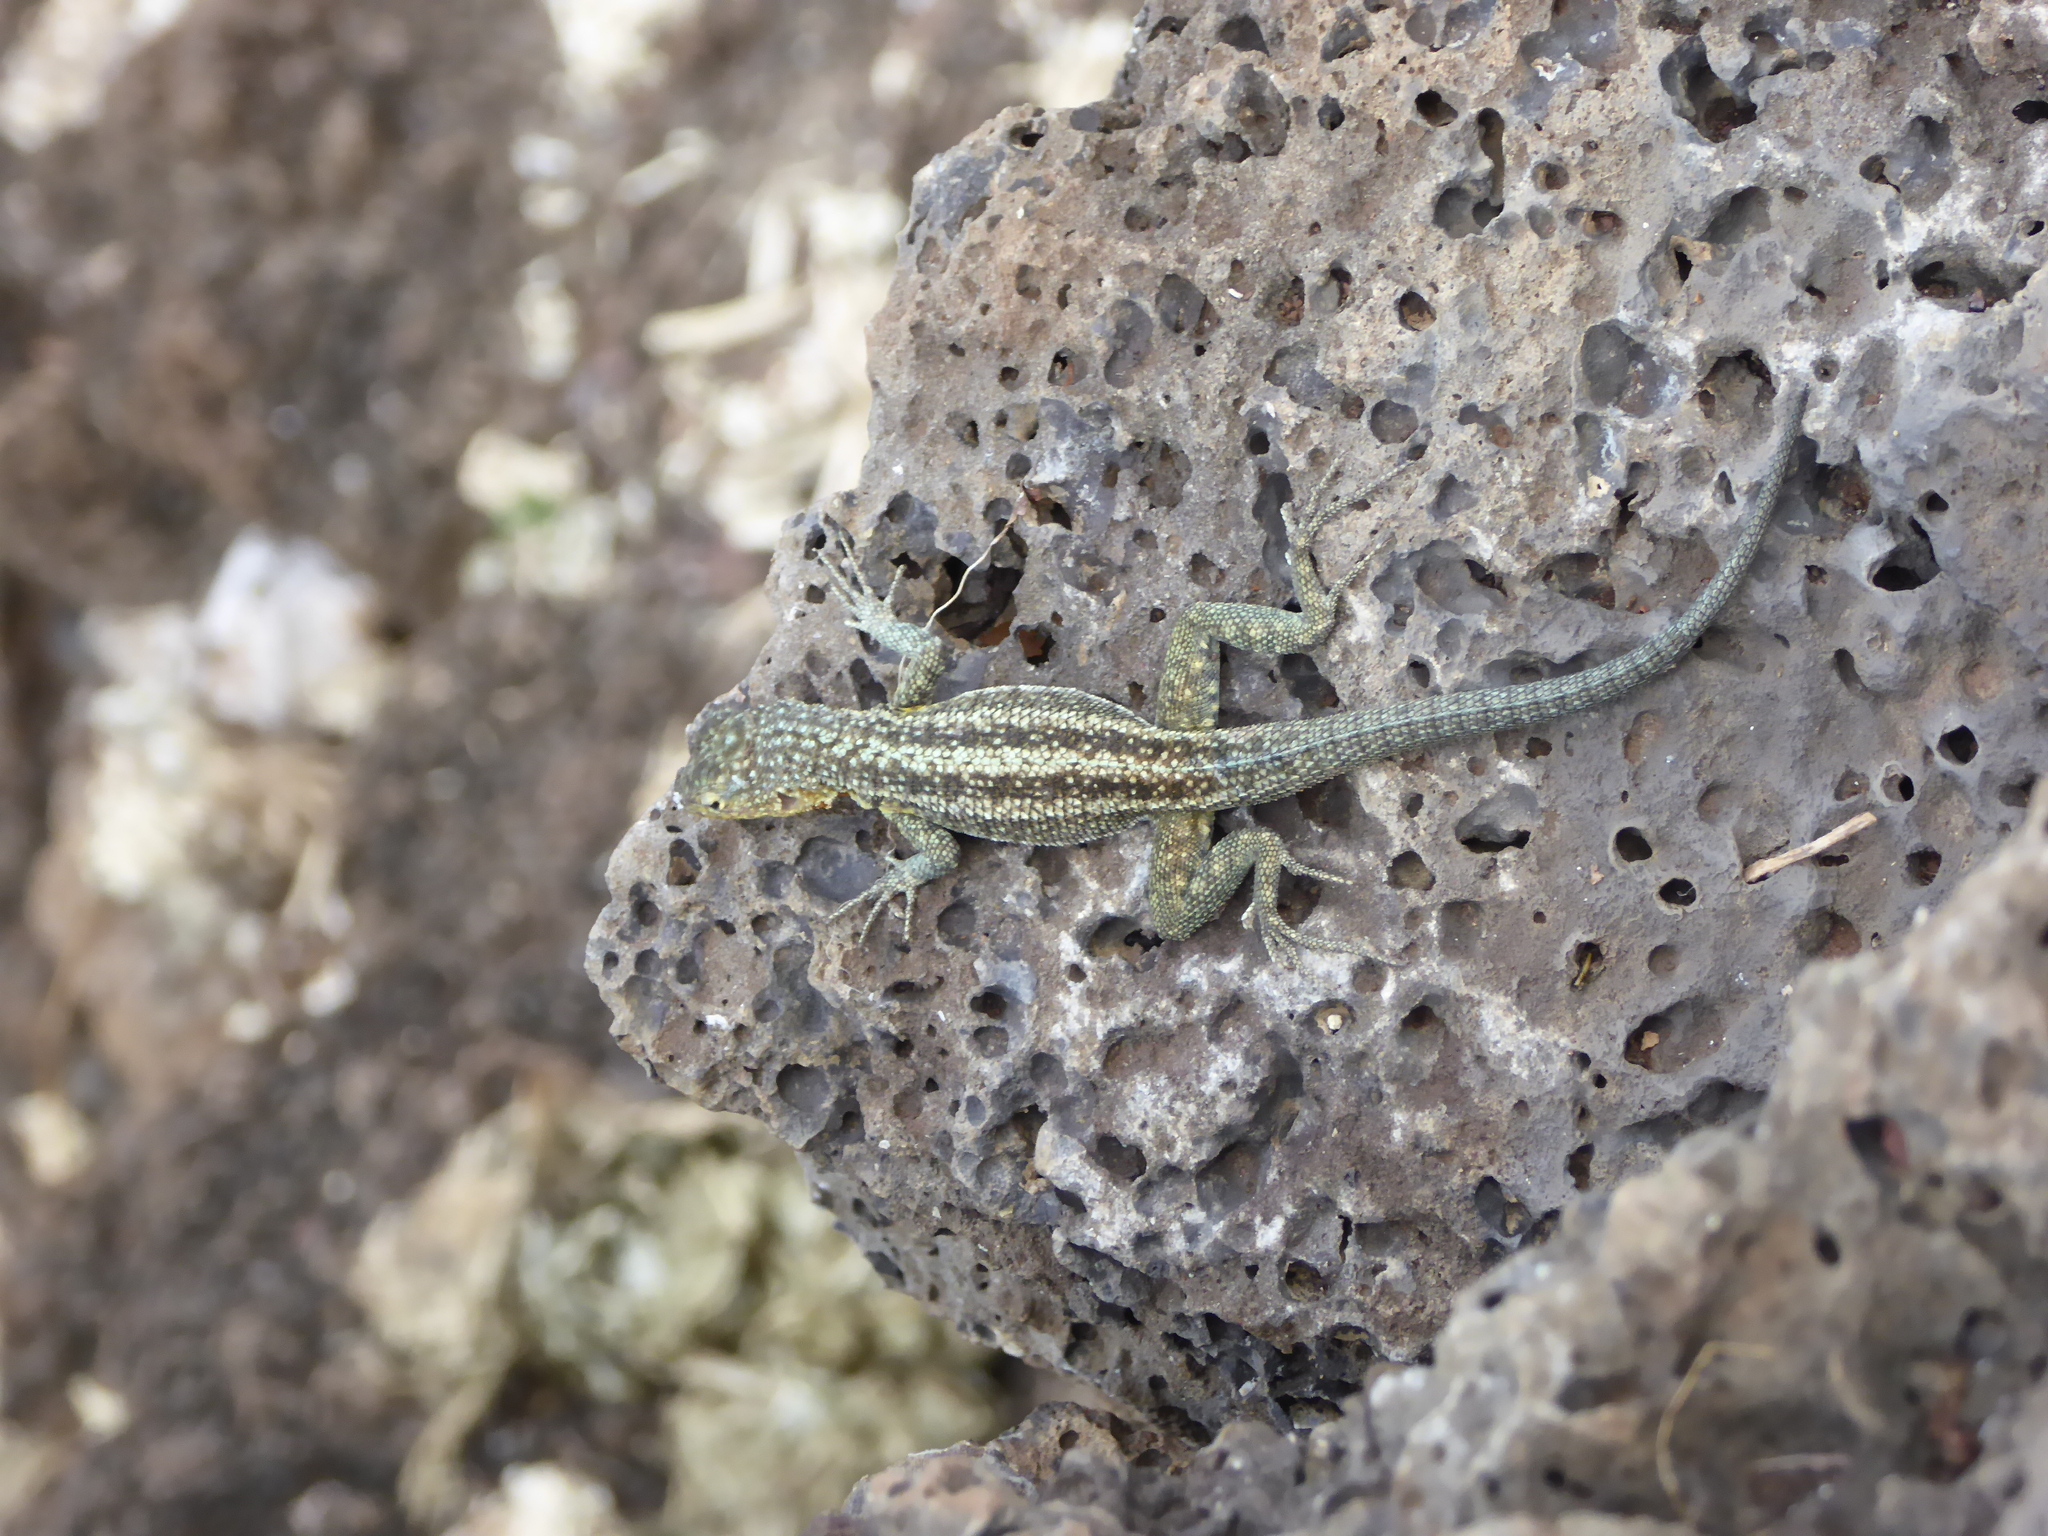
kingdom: Animalia
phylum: Chordata
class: Squamata
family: Tropiduridae
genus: Microlophus
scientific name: Microlophus indefatigabilis
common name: Galapagos lava lizard
